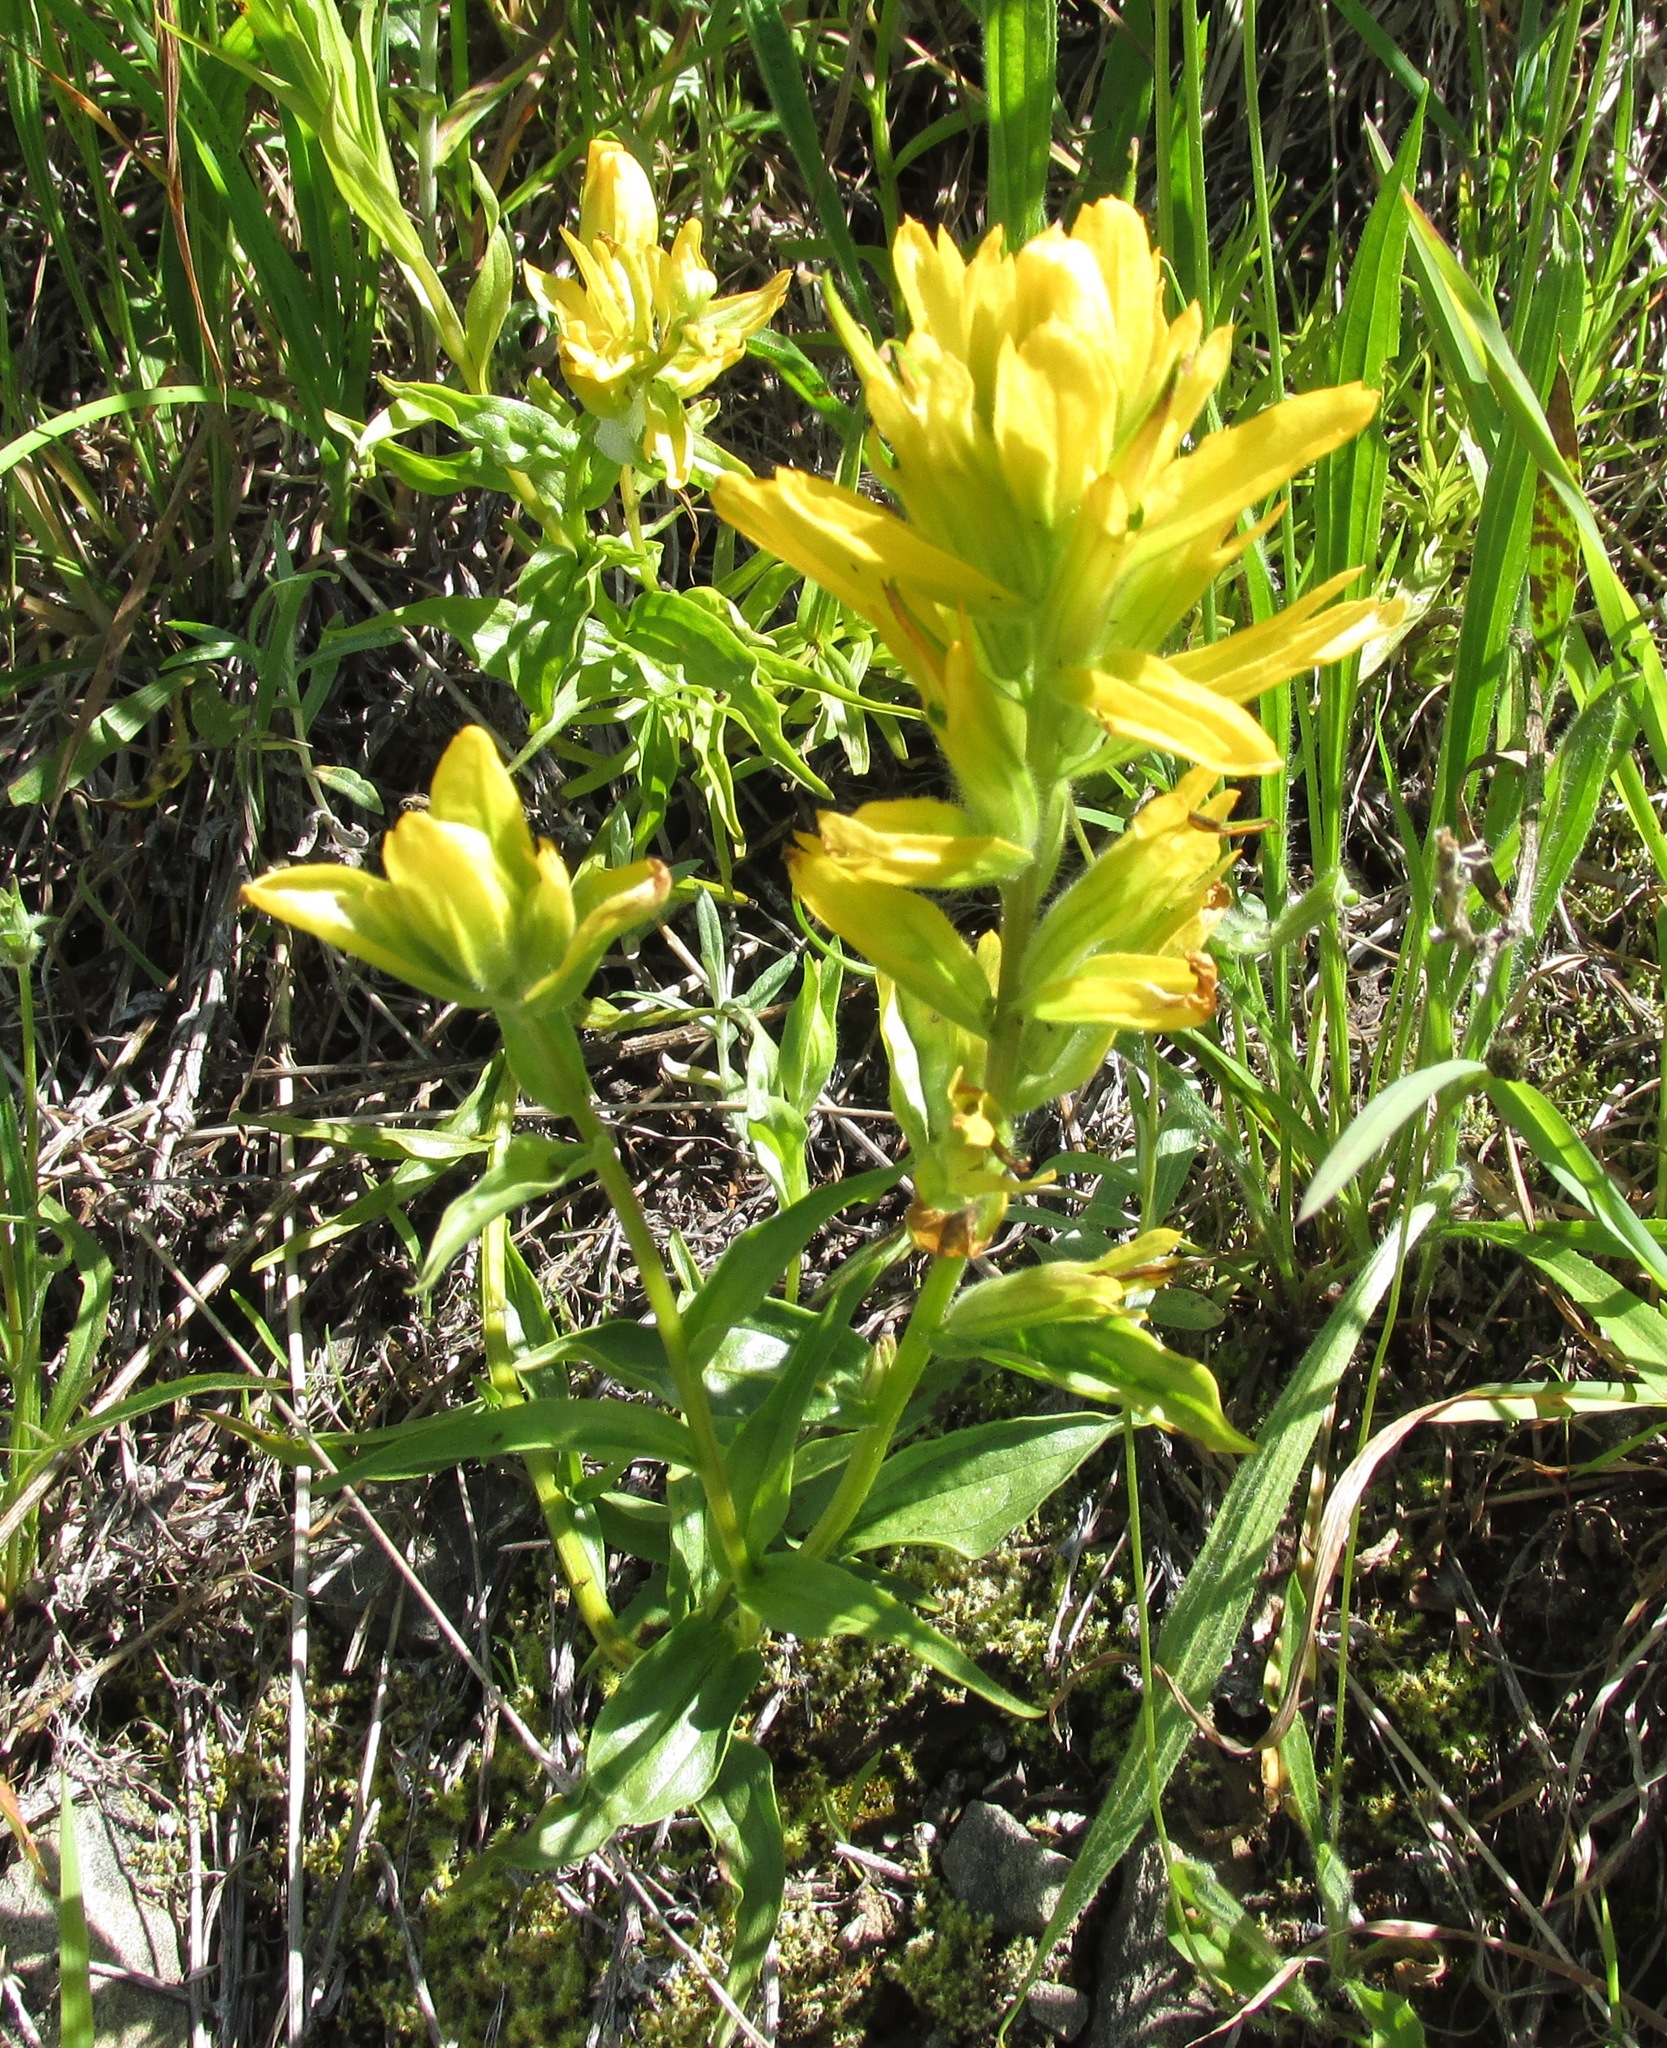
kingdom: Plantae
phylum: Tracheophyta
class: Magnoliopsida
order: Lamiales
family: Orobanchaceae
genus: Castilleja
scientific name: Castilleja miniata
